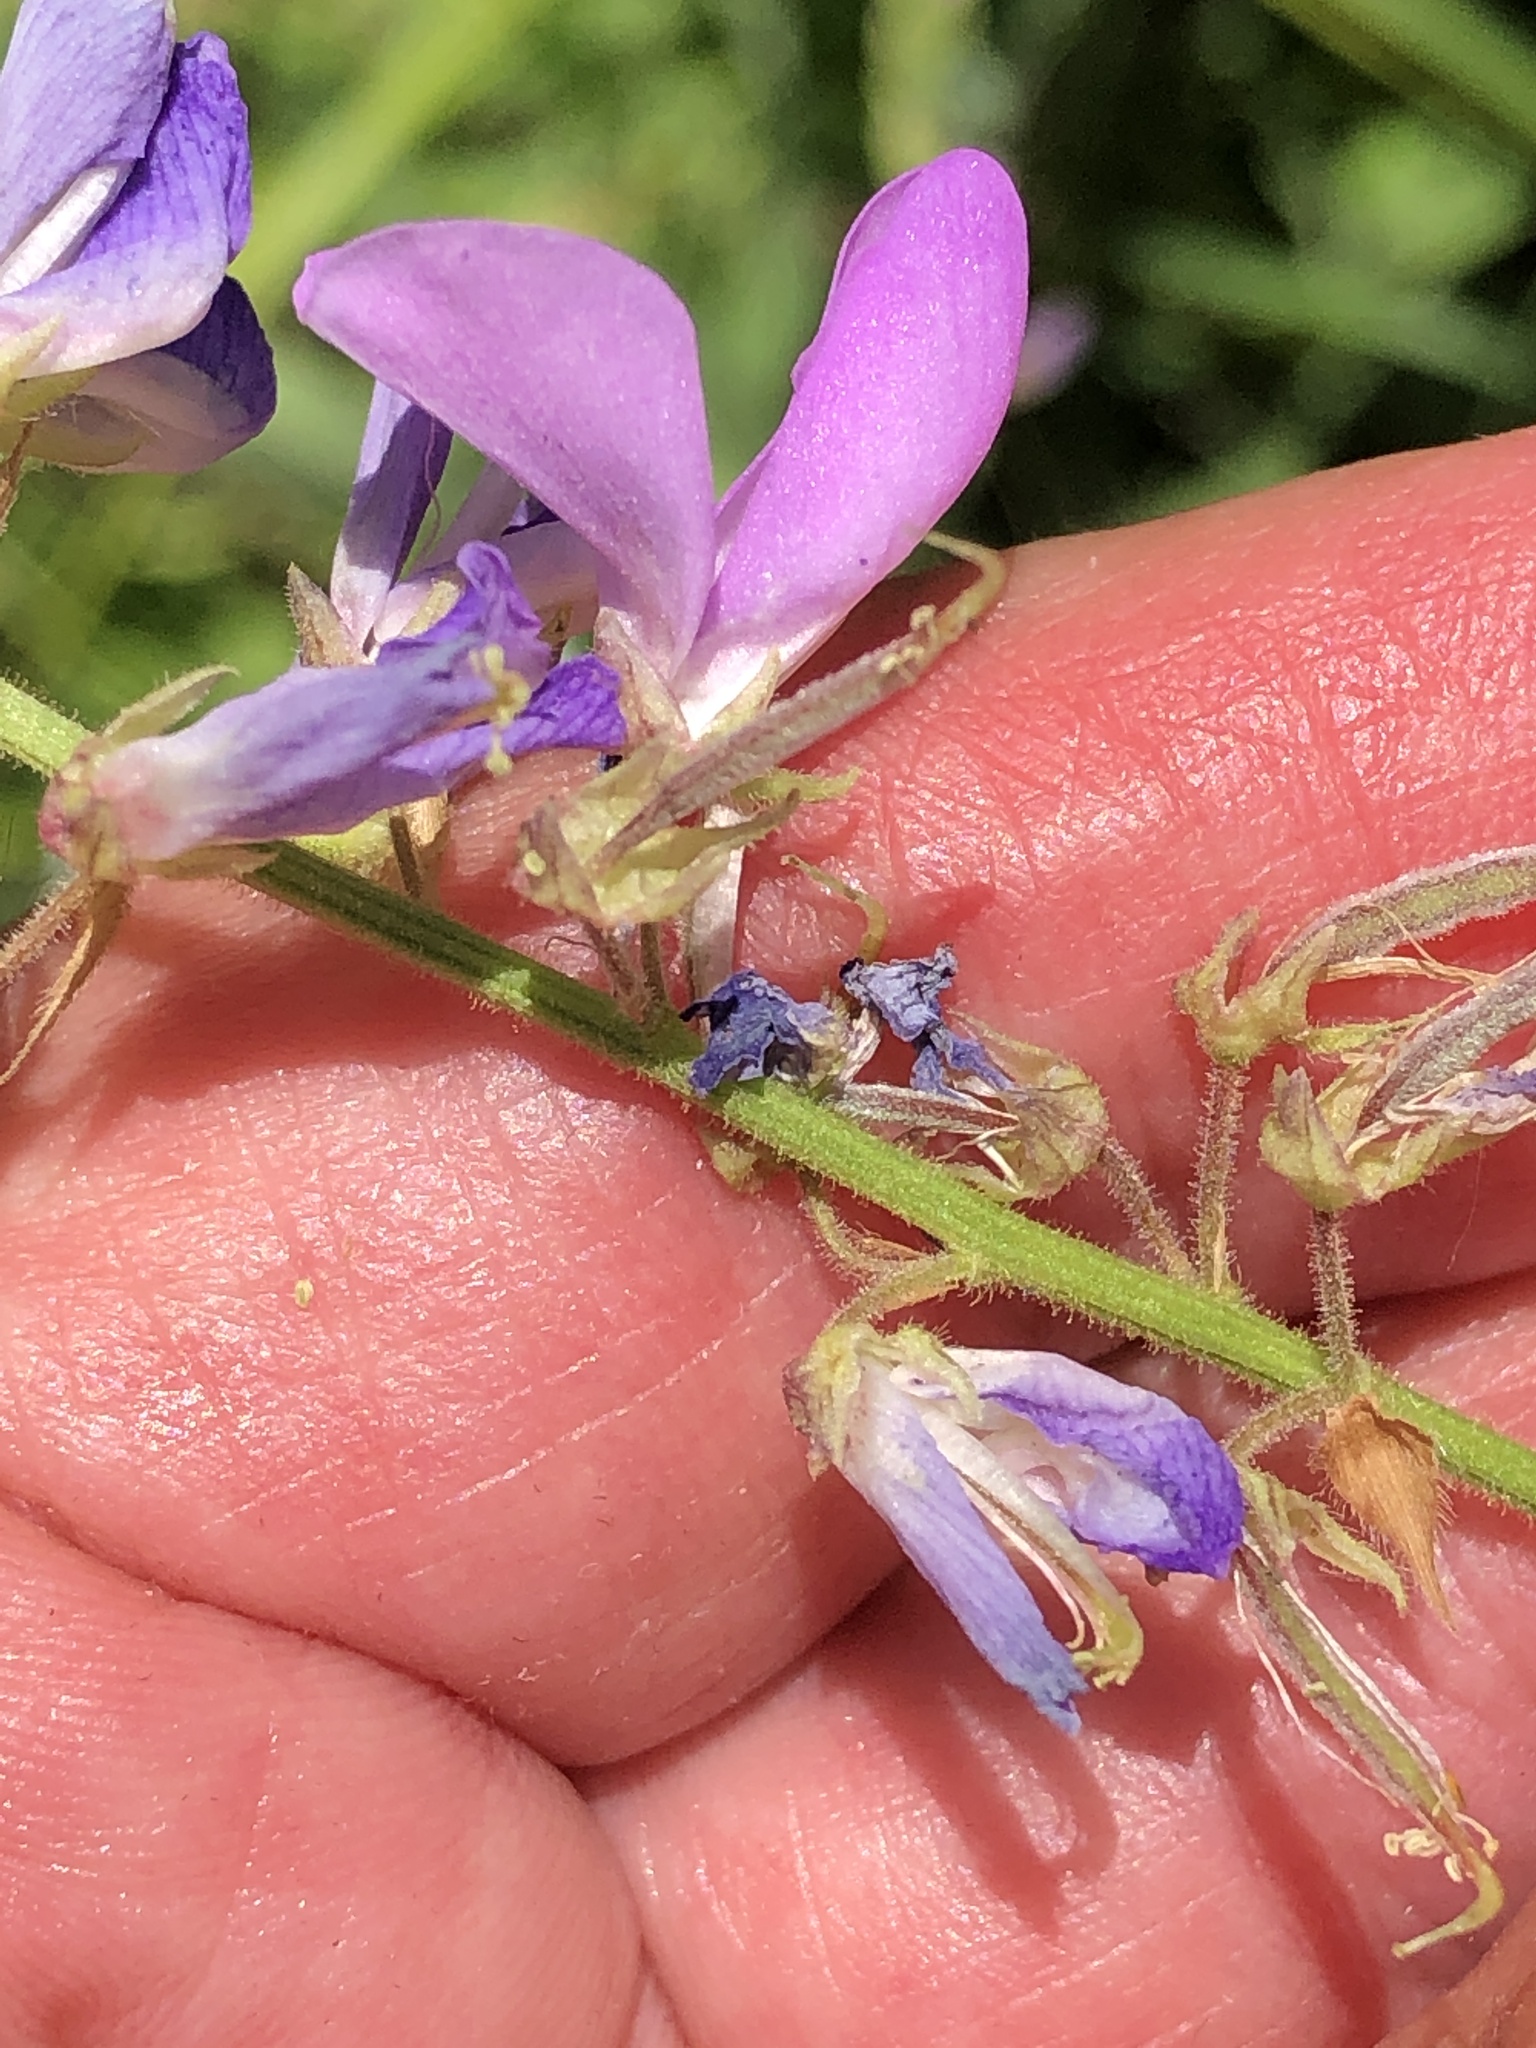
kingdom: Plantae
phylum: Tracheophyta
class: Magnoliopsida
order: Fabales
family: Fabaceae
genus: Desmodium
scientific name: Desmodium cuspidatum
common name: Big tick trefoil
